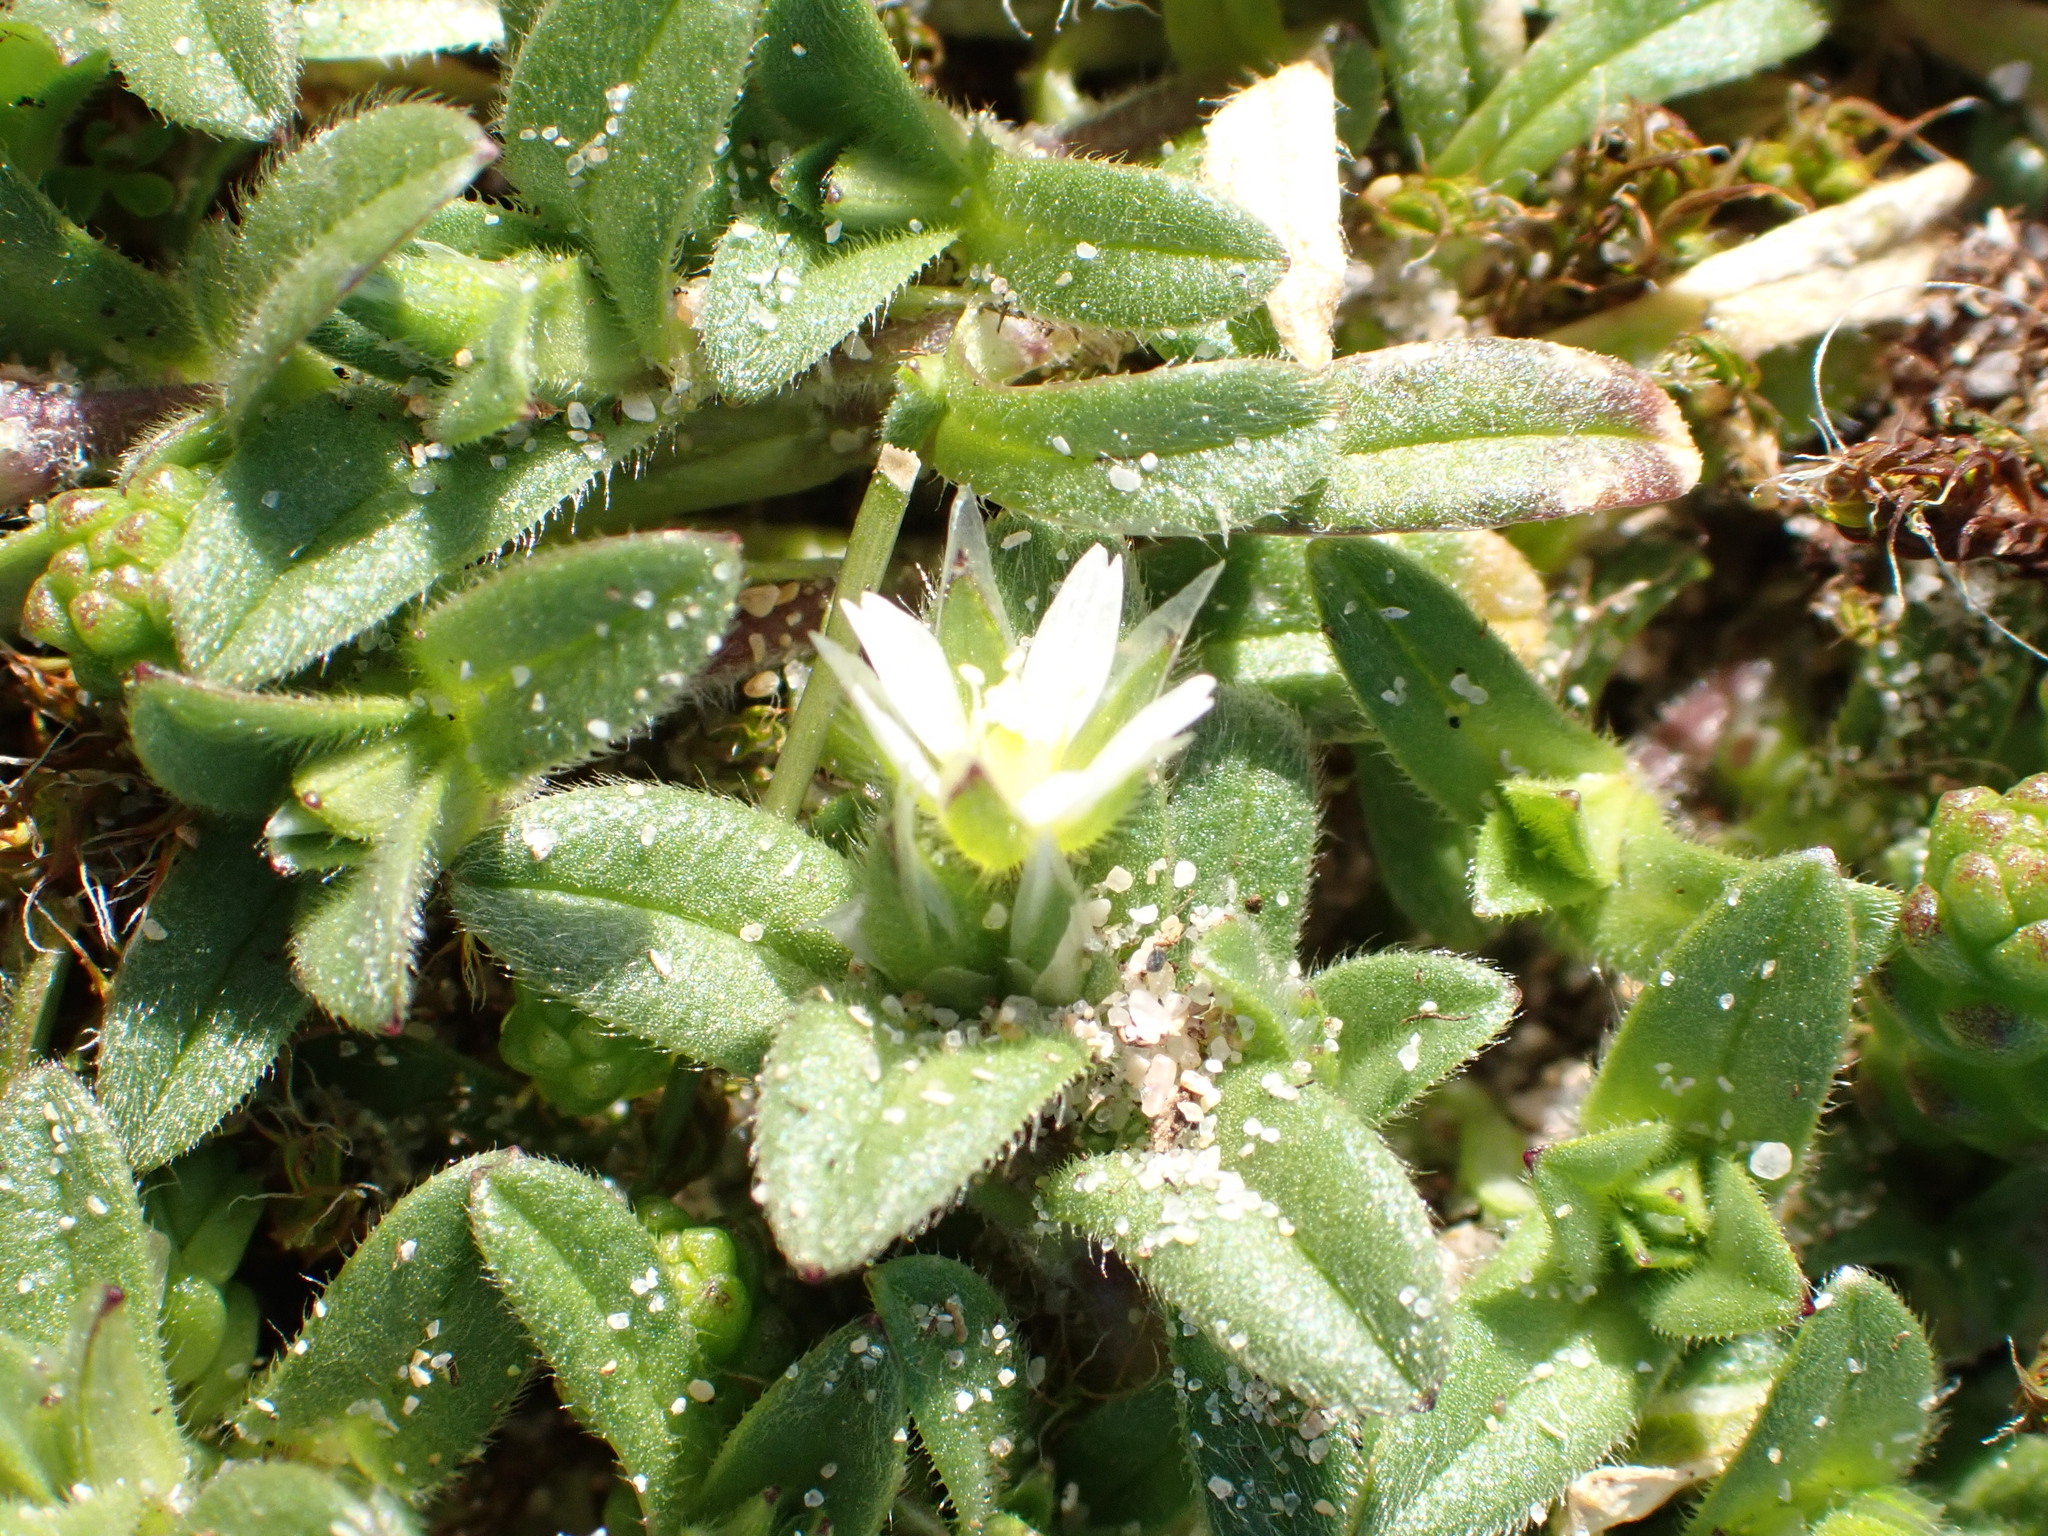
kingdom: Plantae
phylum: Tracheophyta
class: Magnoliopsida
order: Caryophyllales
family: Caryophyllaceae
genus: Cerastium
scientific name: Cerastium semidecandrum
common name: Little mouse-ear
